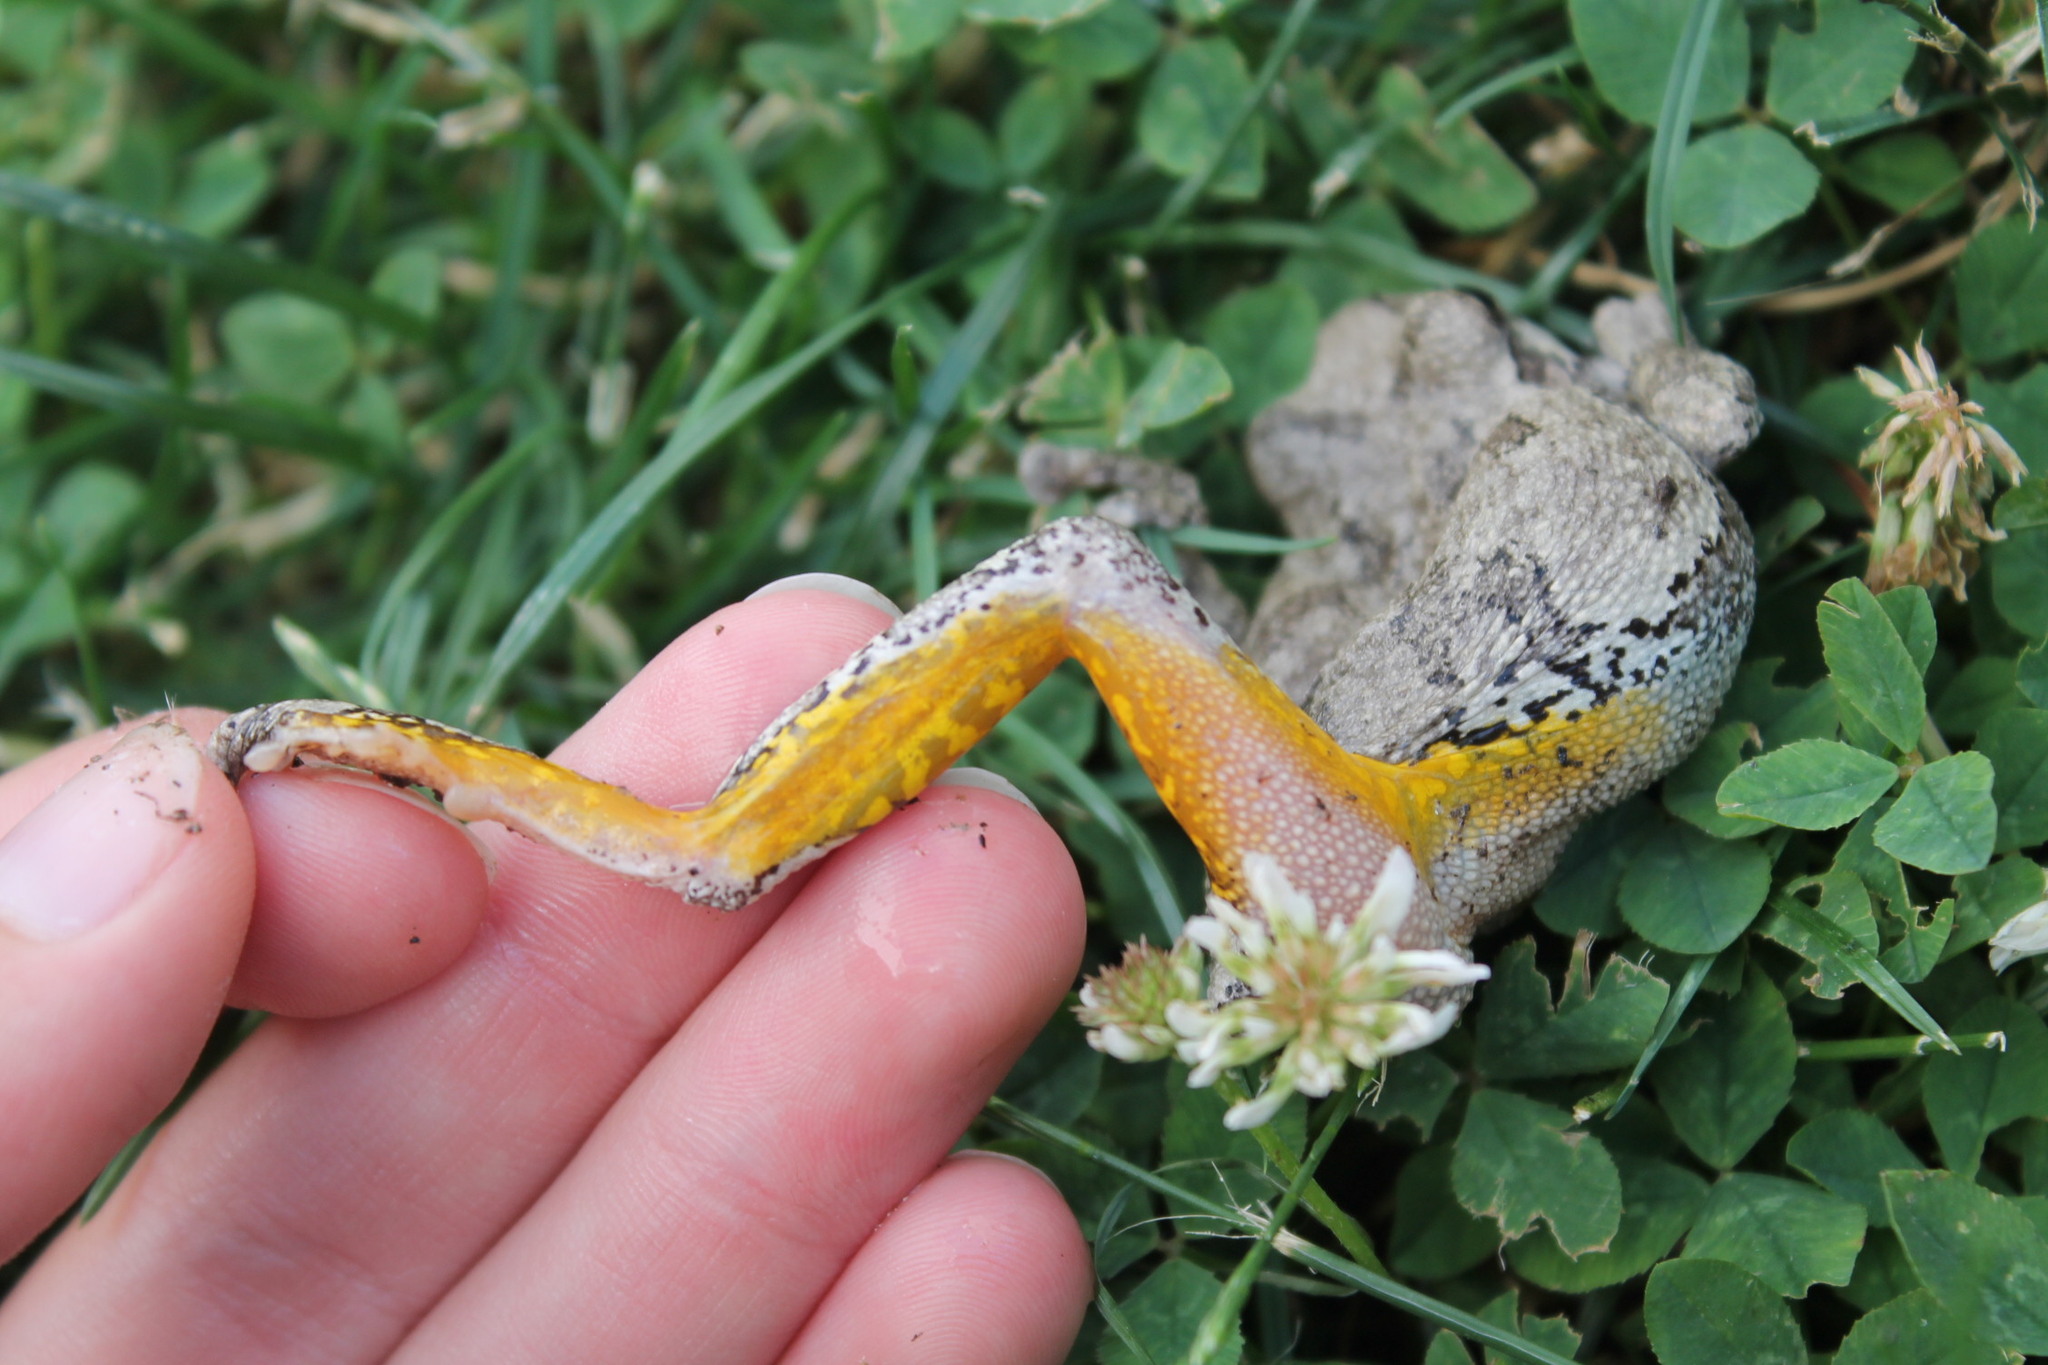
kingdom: Animalia
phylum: Chordata
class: Amphibia
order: Anura
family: Hylidae
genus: Hyla
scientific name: Hyla
